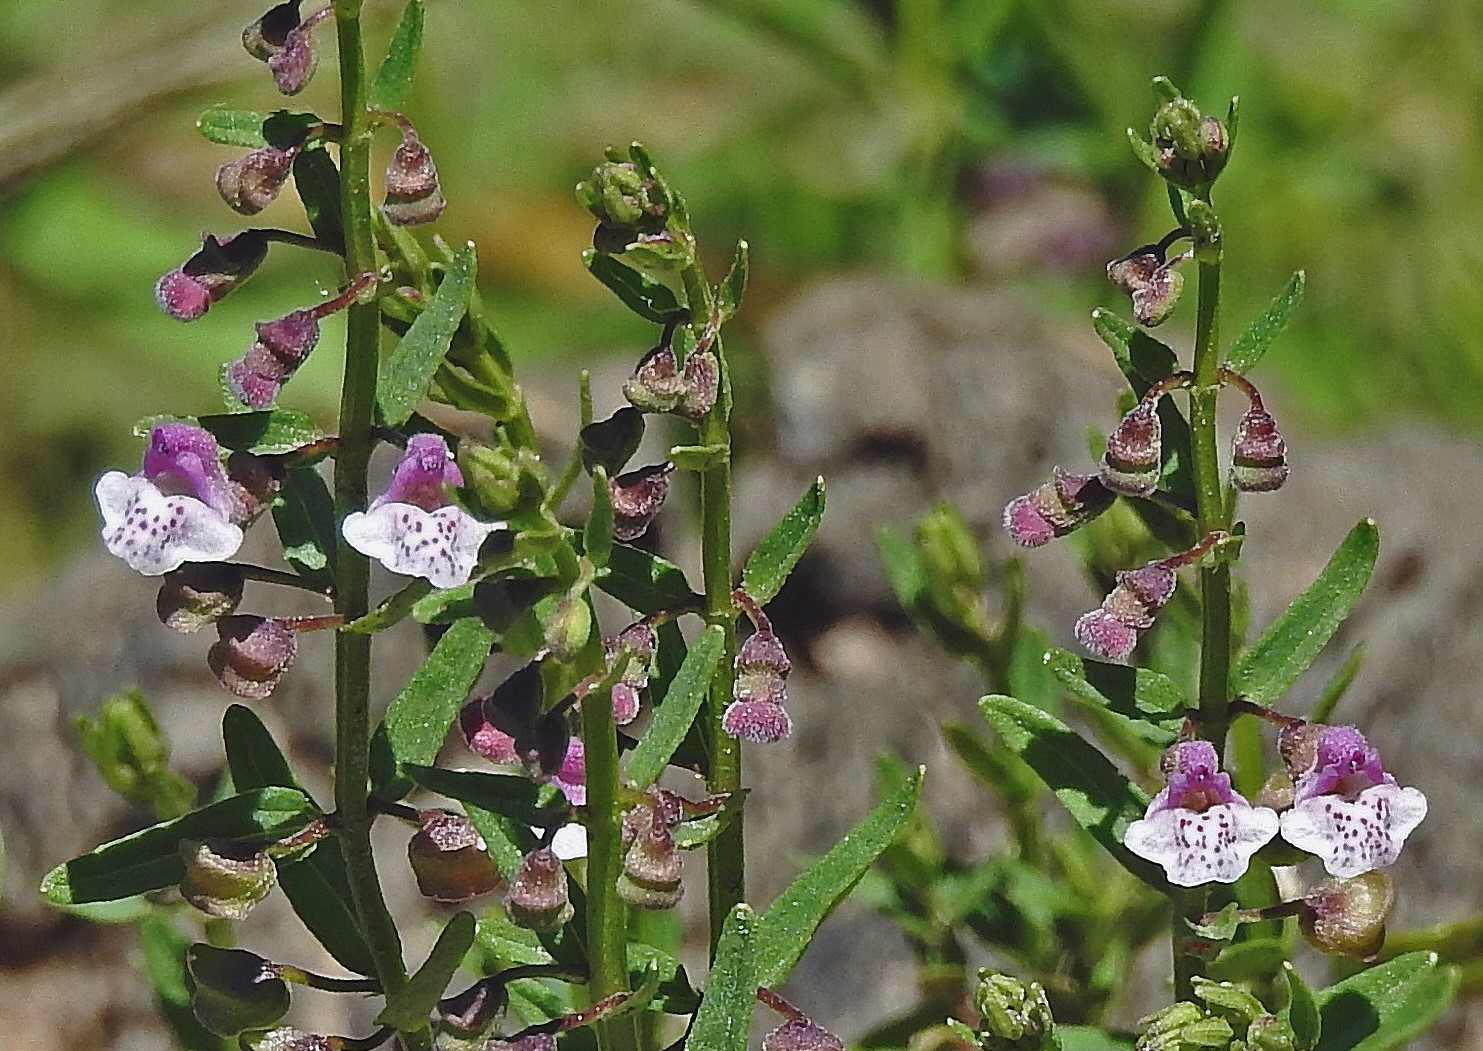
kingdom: Plantae
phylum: Tracheophyta
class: Magnoliopsida
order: Lamiales
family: Lamiaceae
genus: Scutellaria
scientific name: Scutellaria racemosa
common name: South american skullcap
